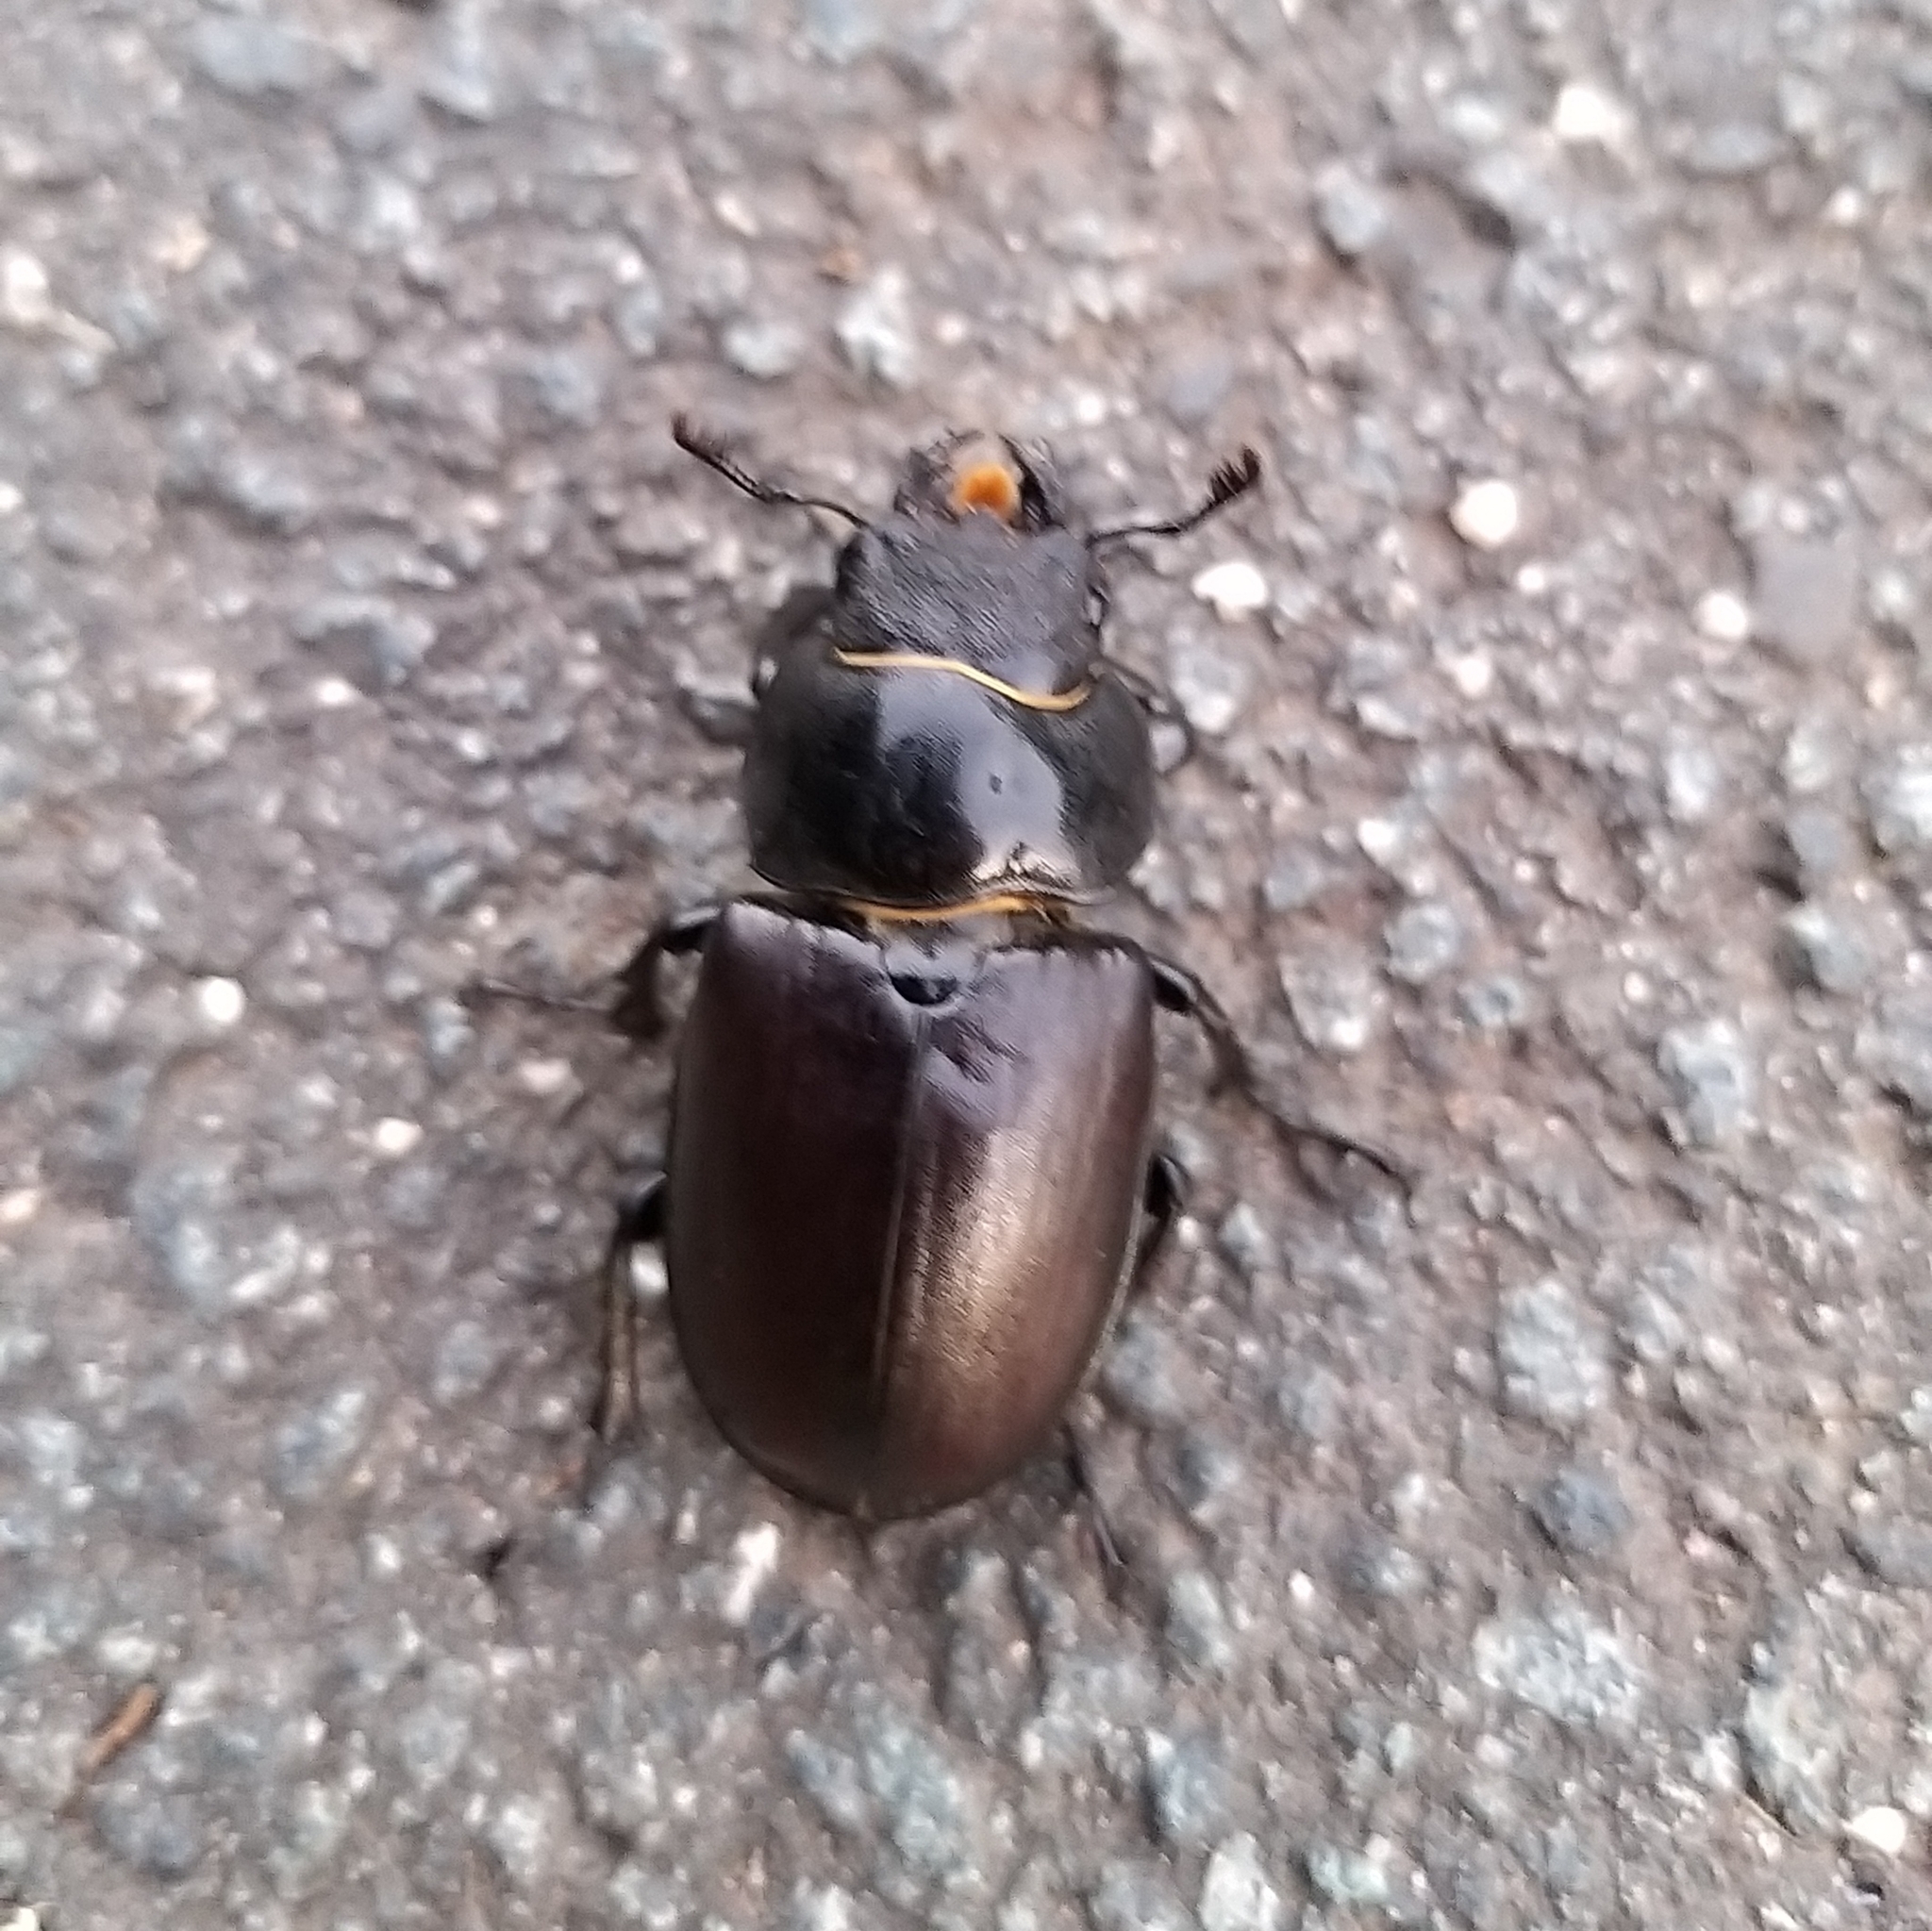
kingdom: Animalia
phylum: Arthropoda
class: Insecta
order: Coleoptera
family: Lucanidae
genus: Lucanus
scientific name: Lucanus cervus
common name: Stag beetle
